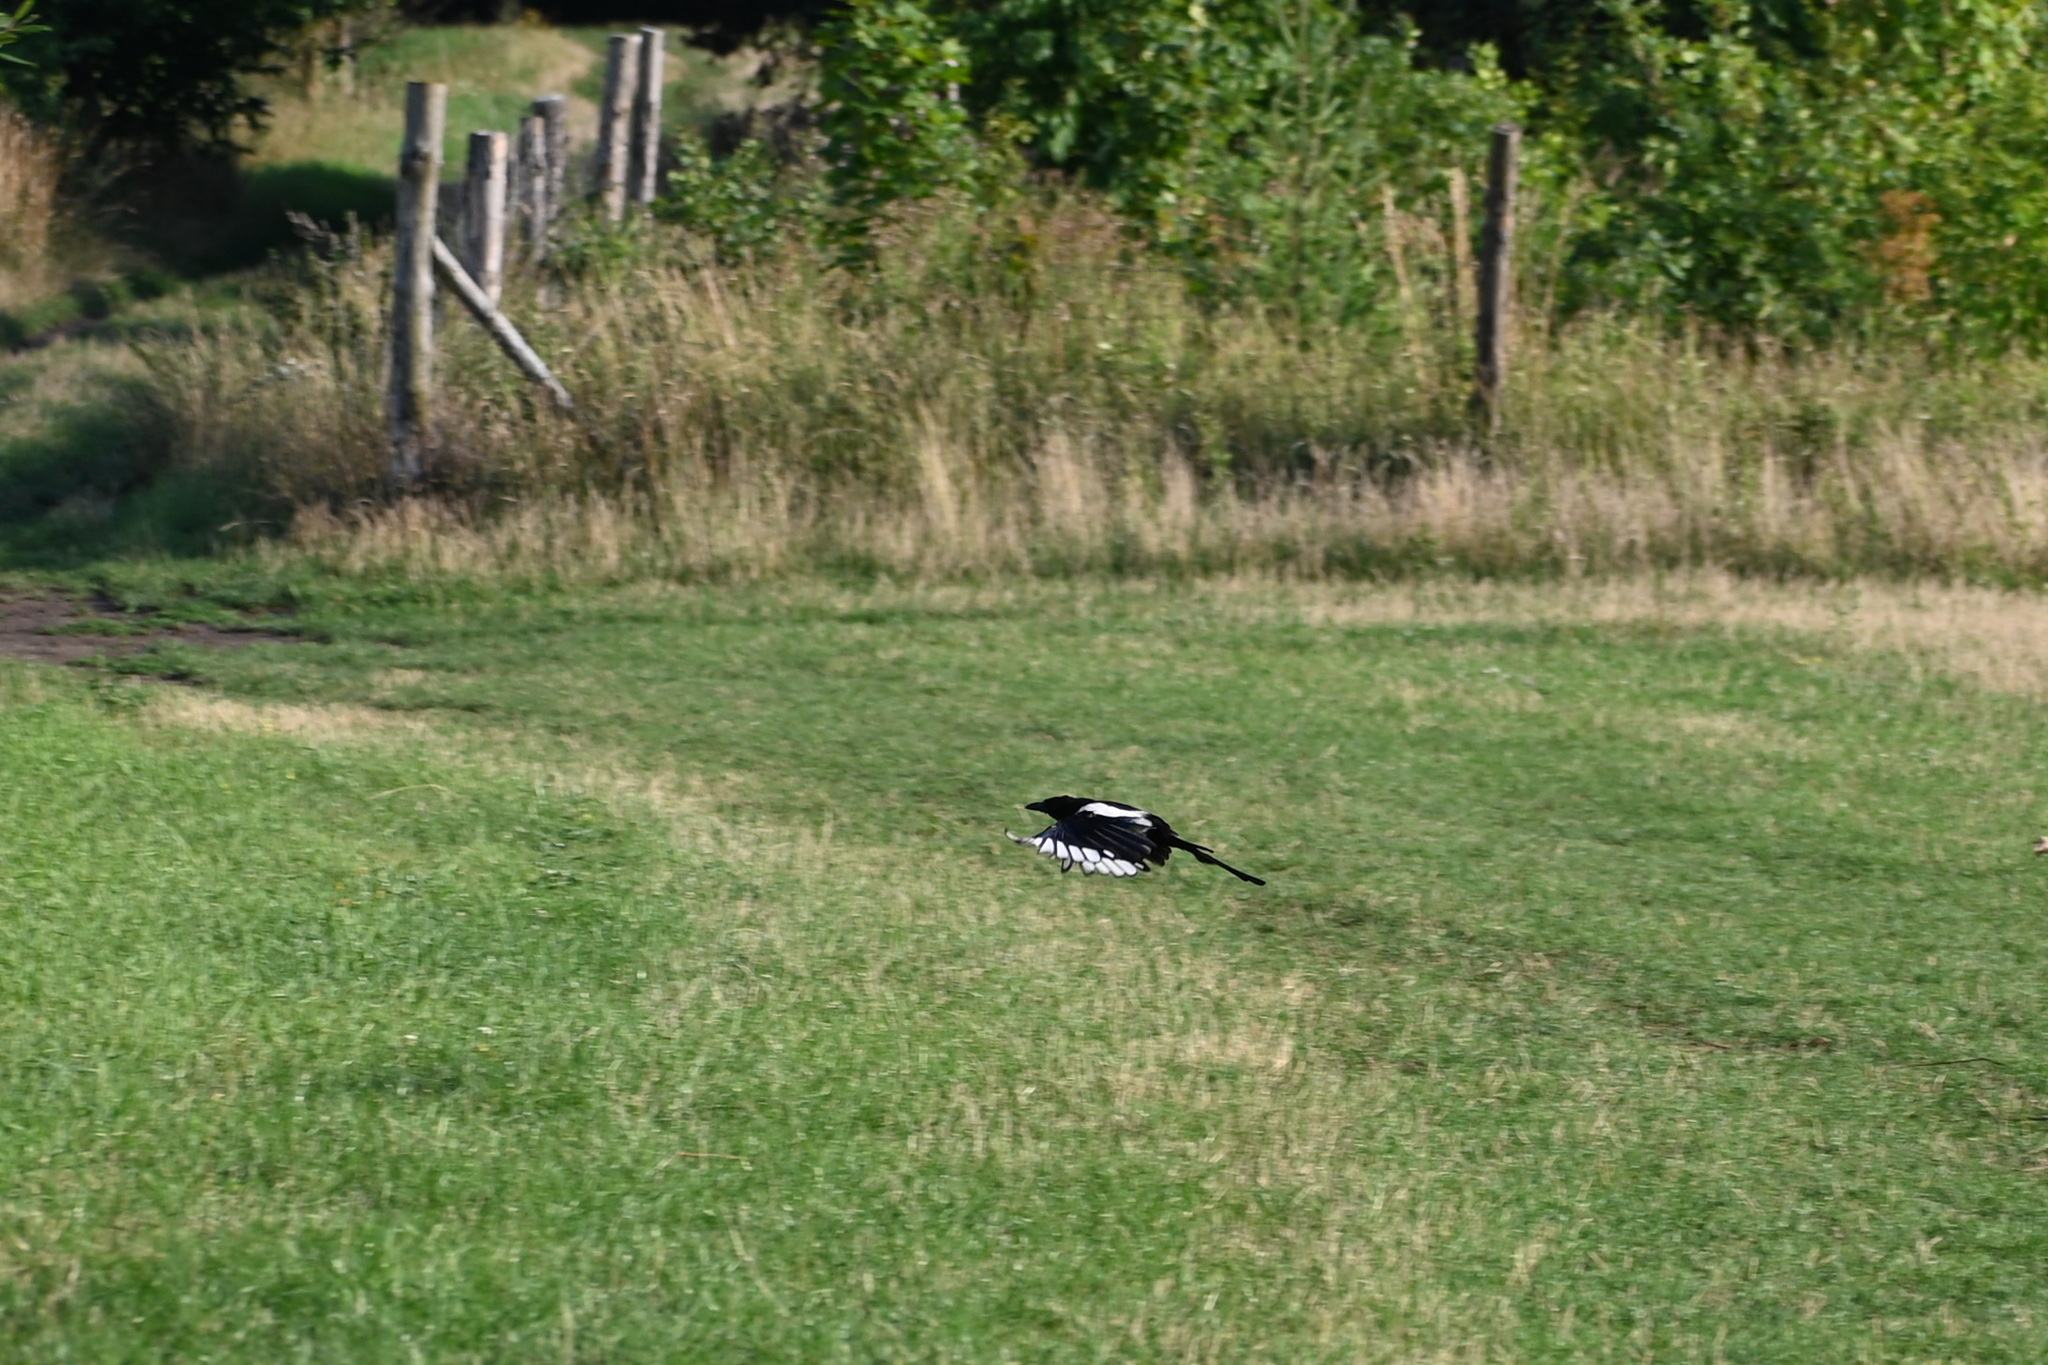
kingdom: Animalia
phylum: Chordata
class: Aves
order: Passeriformes
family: Corvidae
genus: Pica
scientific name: Pica pica
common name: Eurasian magpie
